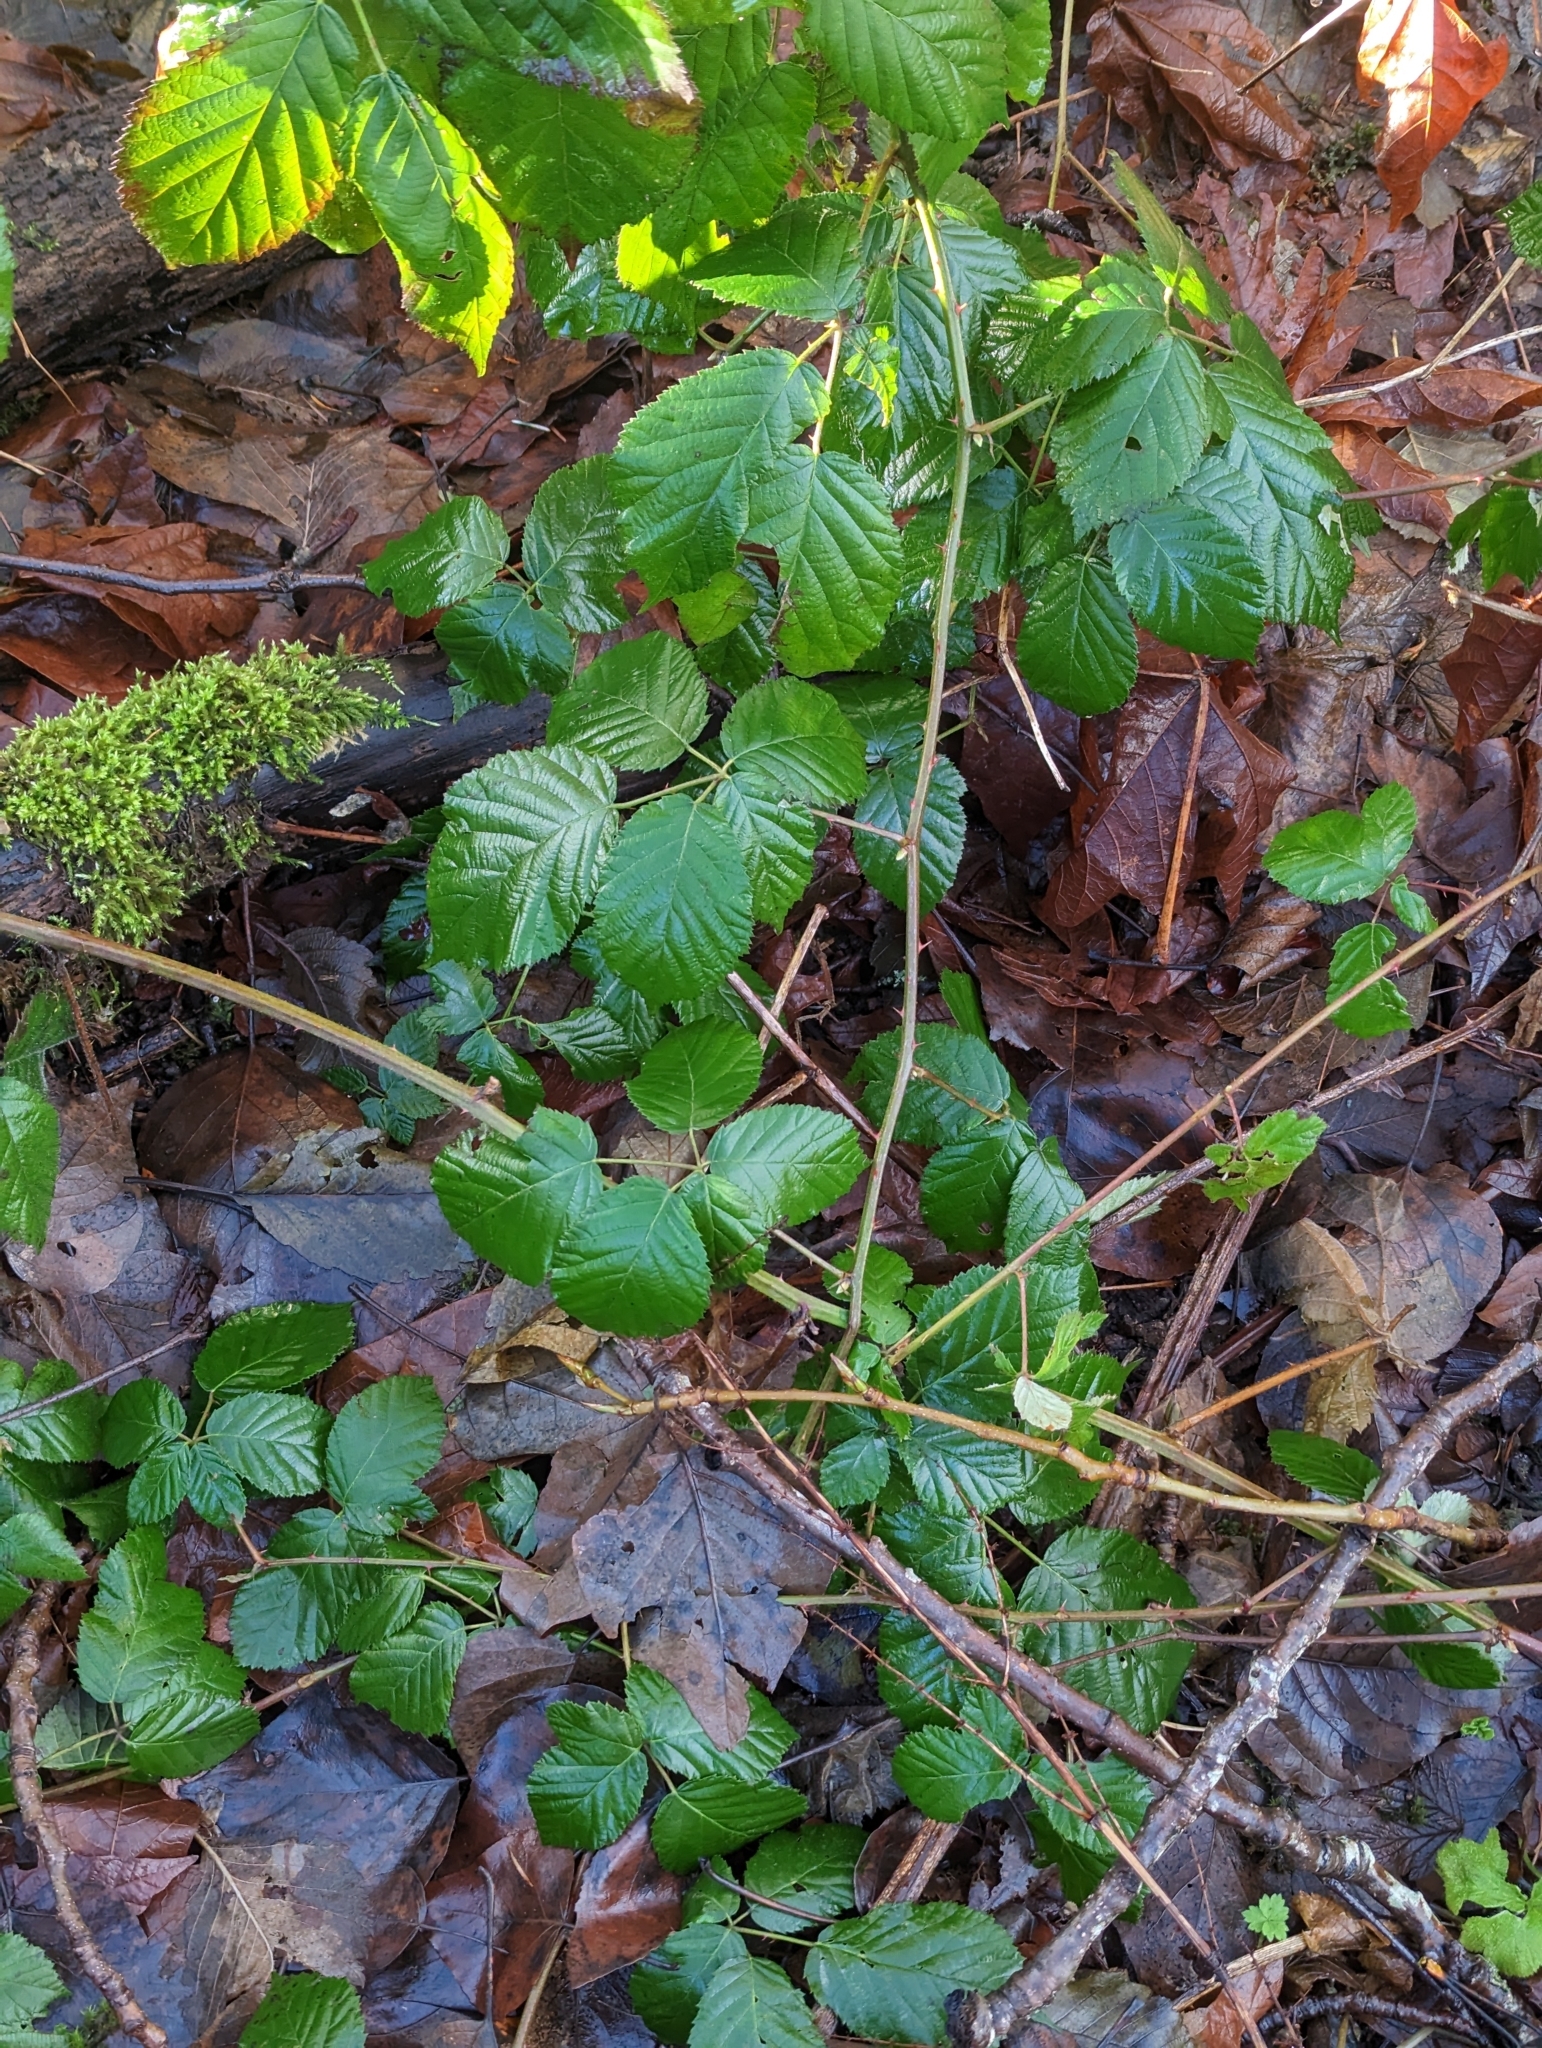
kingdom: Plantae
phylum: Tracheophyta
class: Magnoliopsida
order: Rosales
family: Rosaceae
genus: Rubus
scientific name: Rubus bifrons
